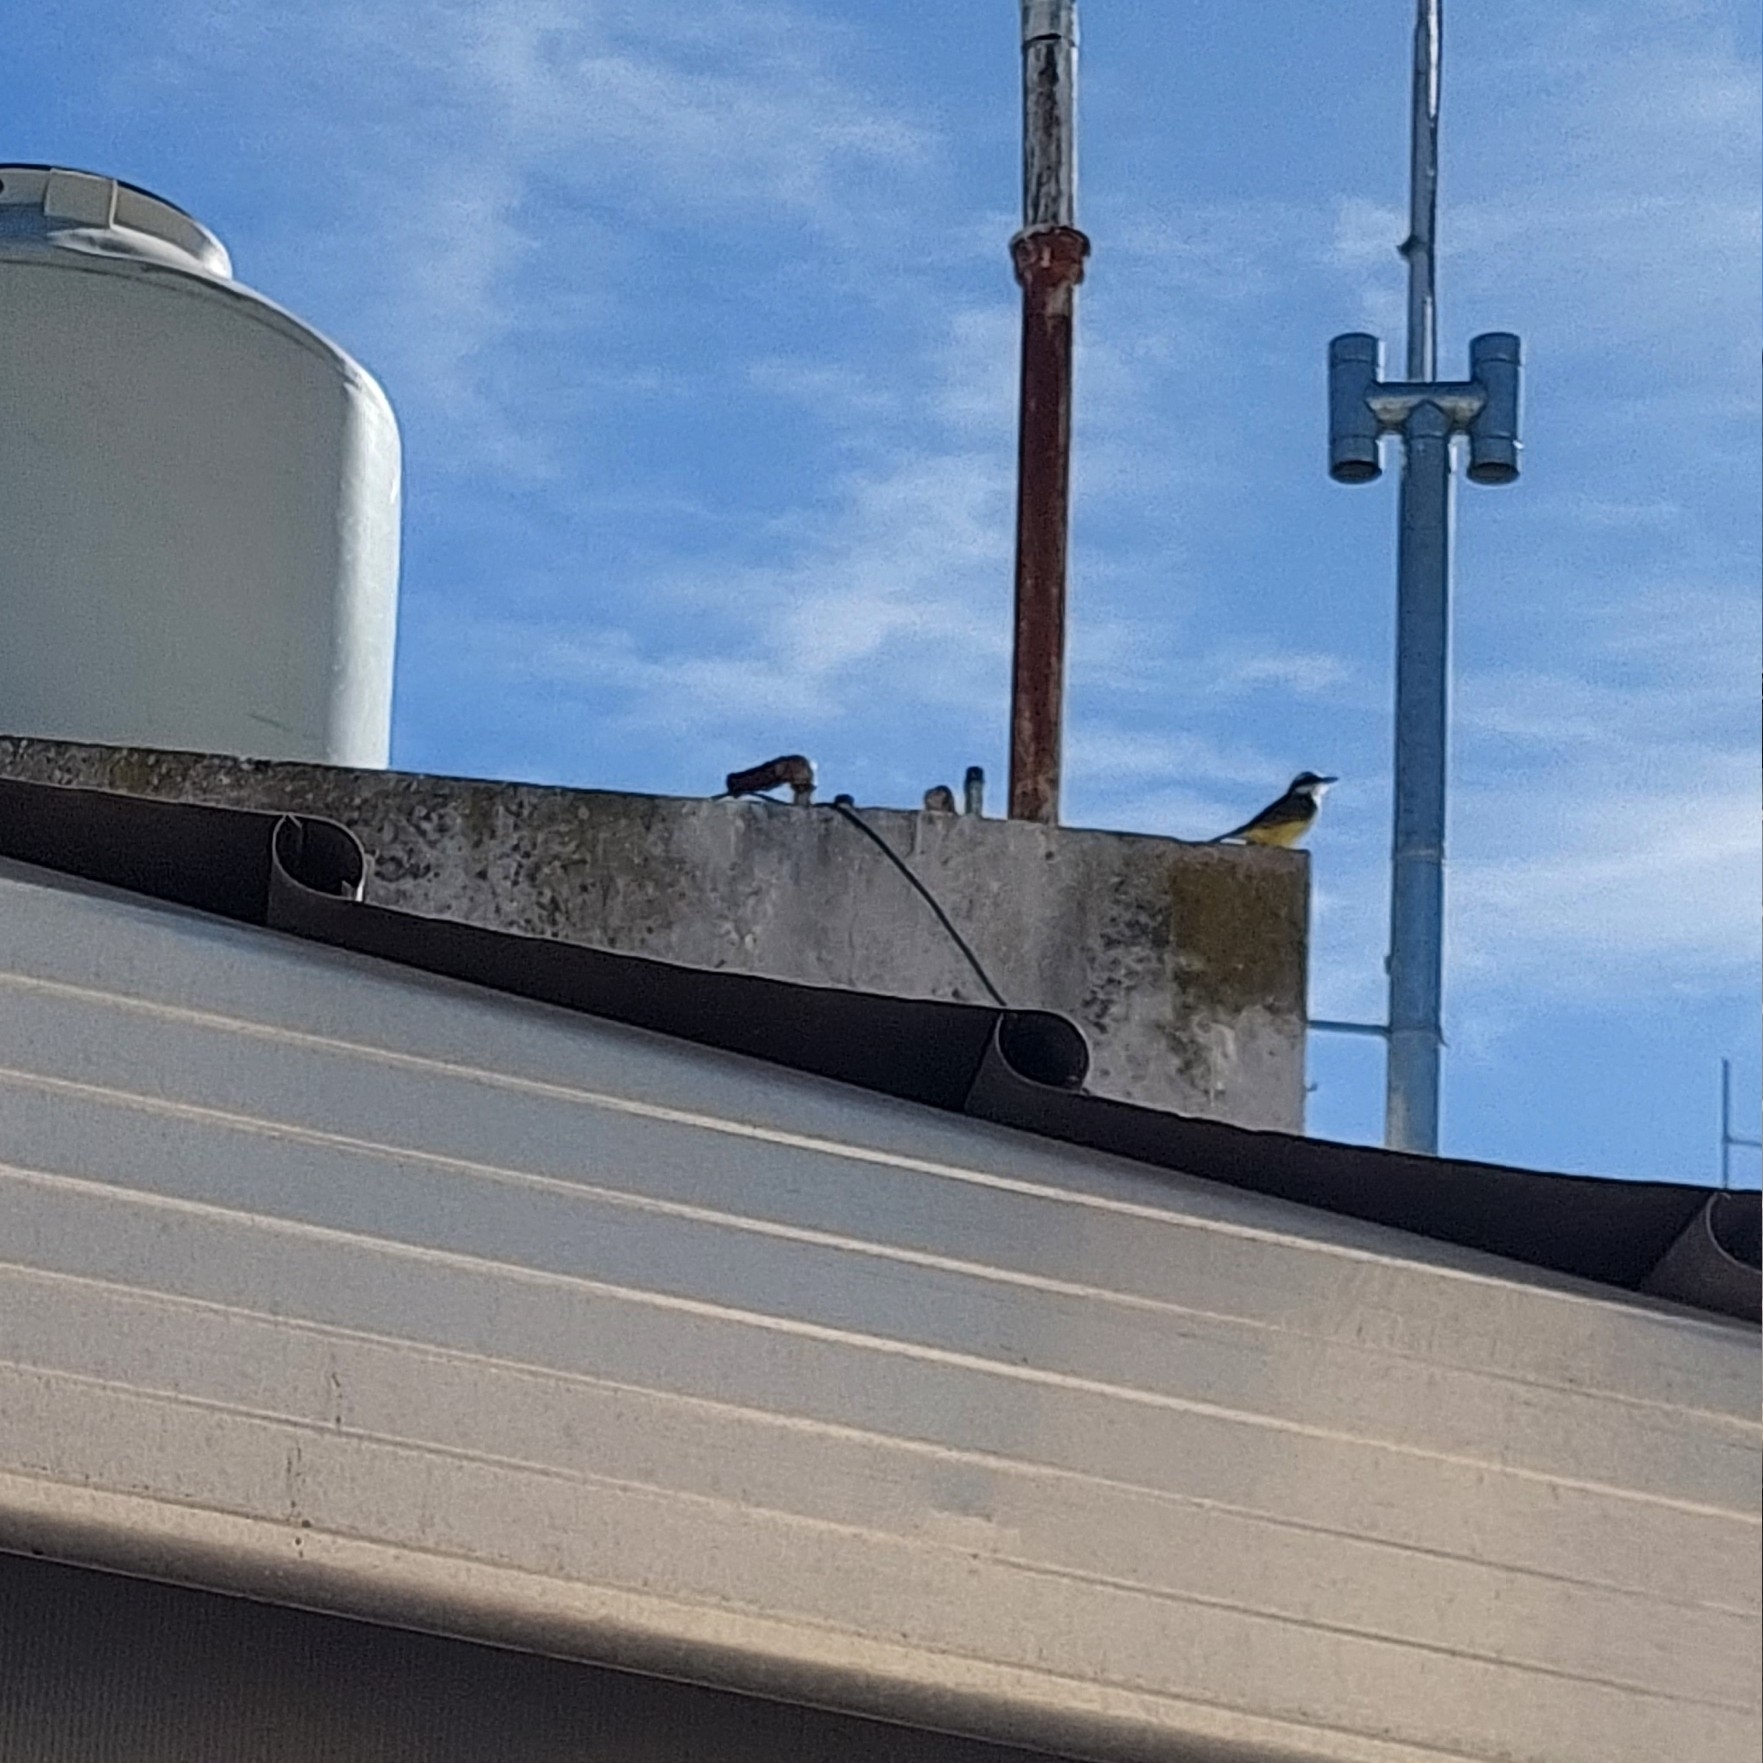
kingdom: Animalia
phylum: Chordata
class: Aves
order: Passeriformes
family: Tyrannidae
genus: Pitangus
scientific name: Pitangus sulphuratus
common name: Great kiskadee
